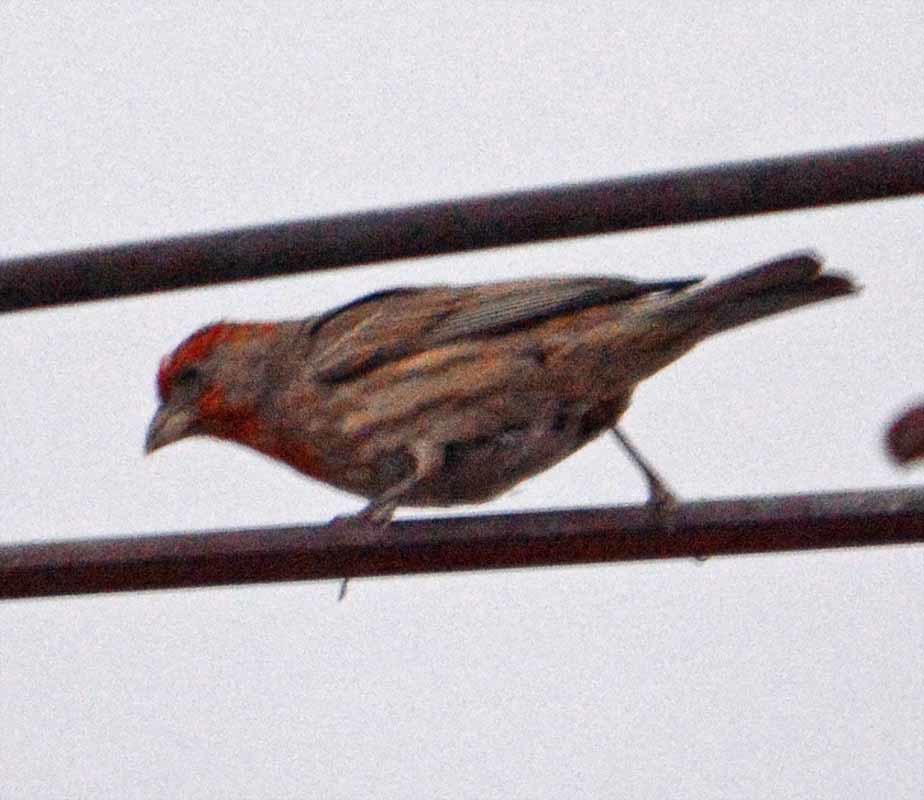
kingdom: Animalia
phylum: Chordata
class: Aves
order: Passeriformes
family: Fringillidae
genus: Haemorhous
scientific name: Haemorhous mexicanus
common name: House finch
